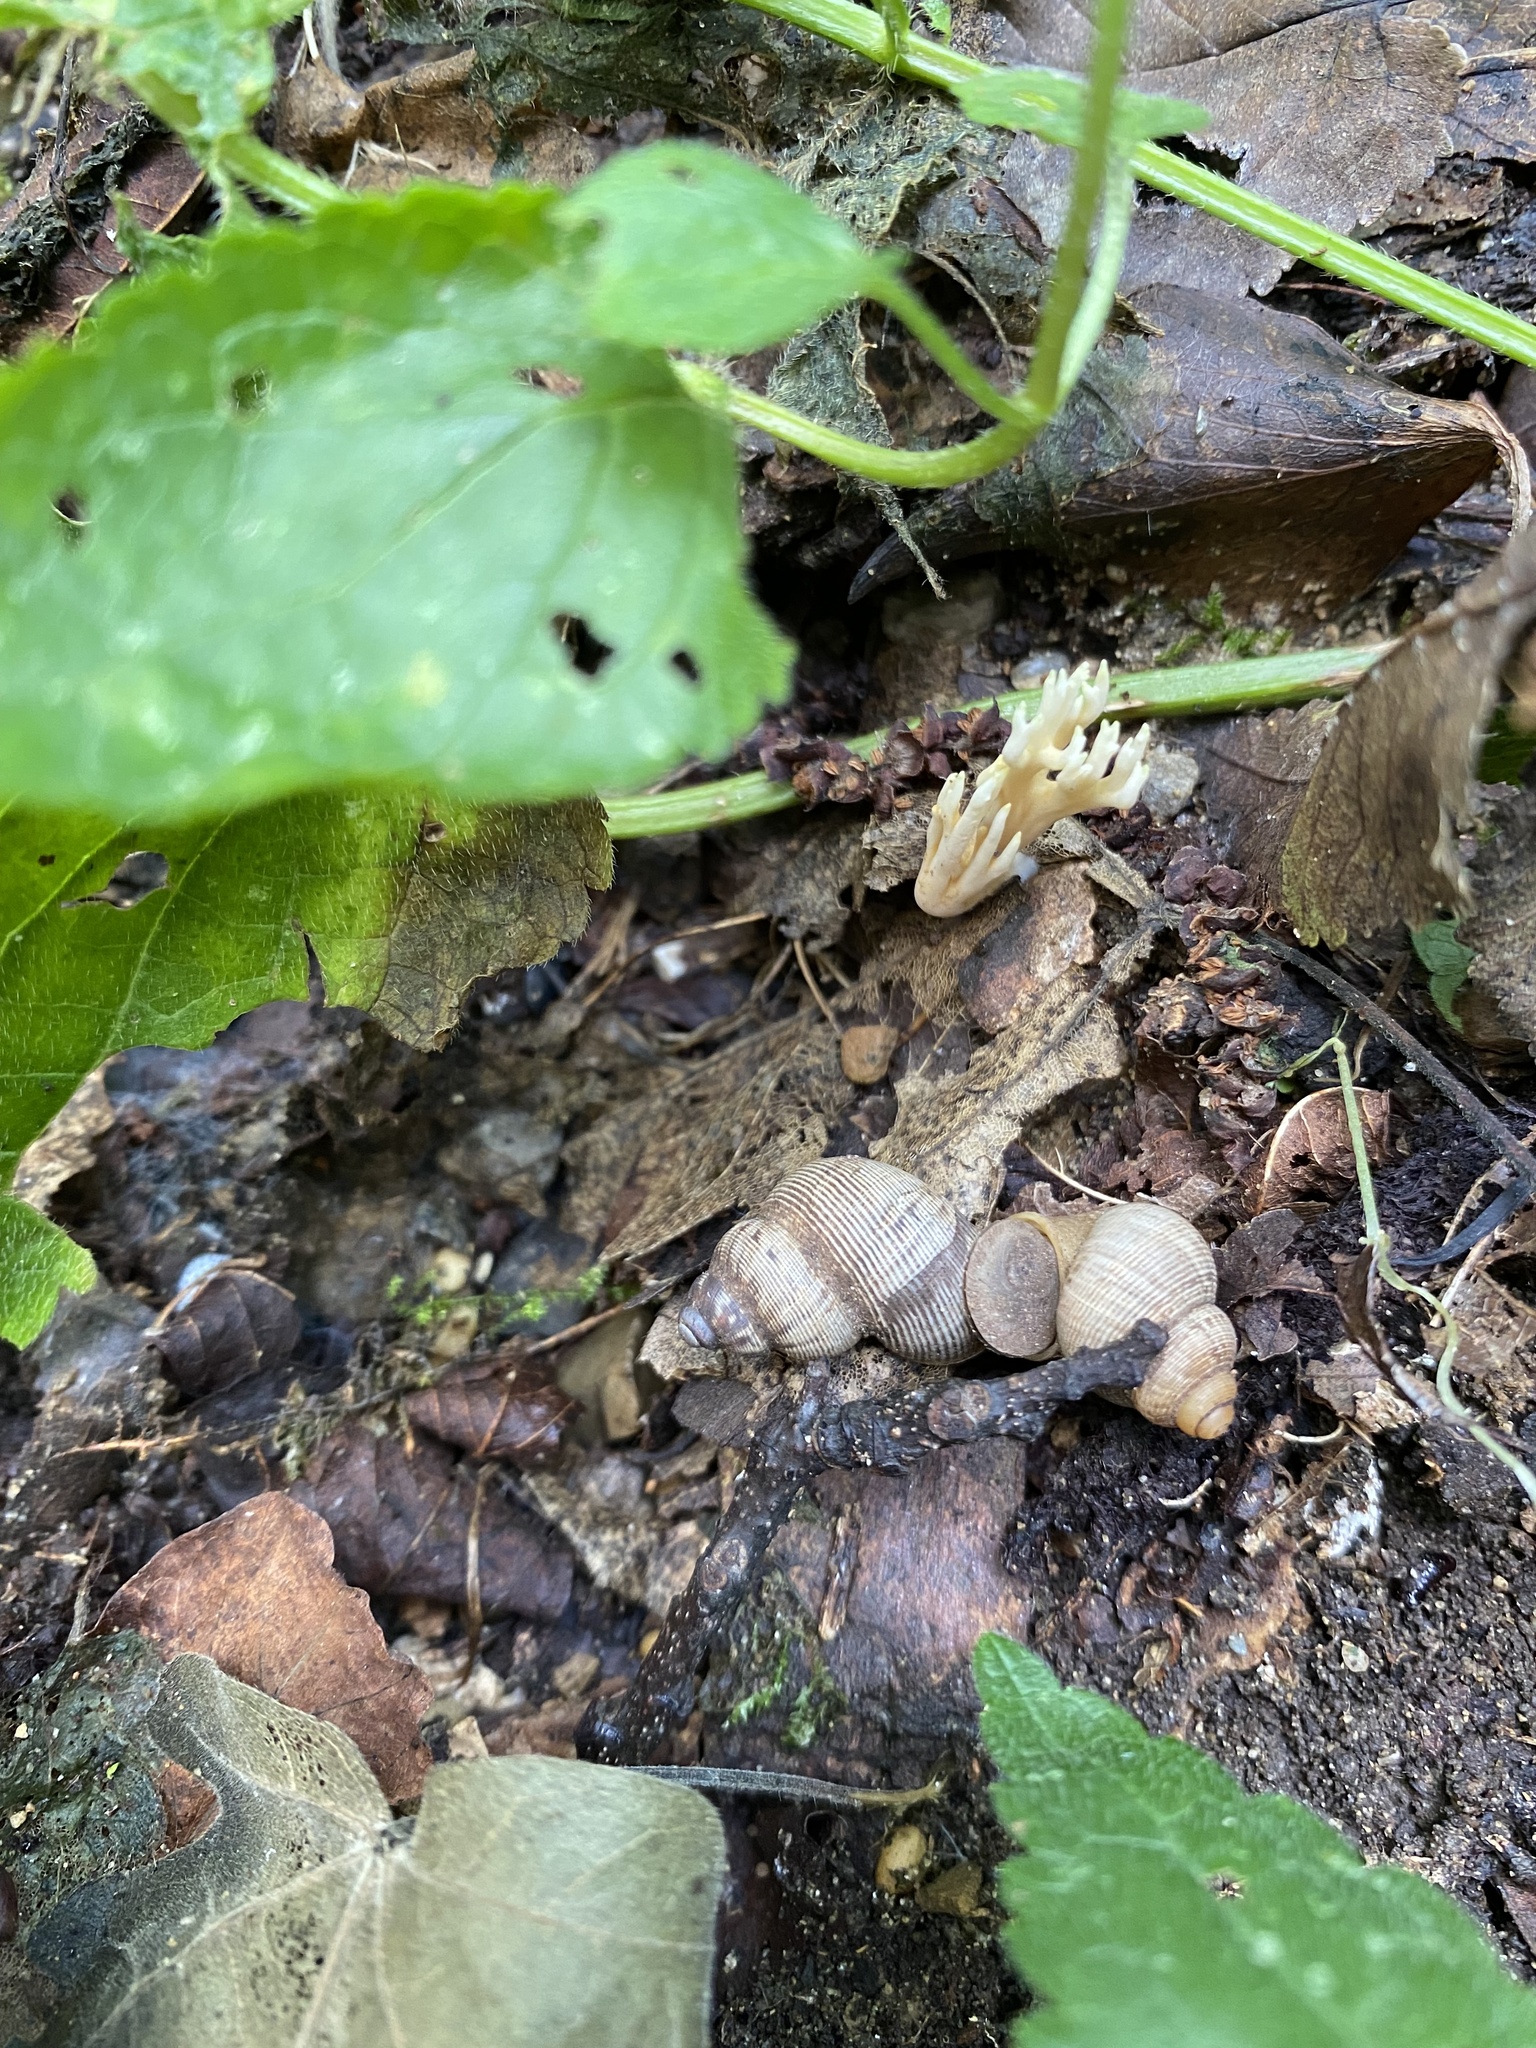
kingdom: Animalia
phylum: Mollusca
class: Gastropoda
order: Littorinimorpha
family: Pomatiidae
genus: Pomatias
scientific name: Pomatias elegans
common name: Red-mouthed snail
